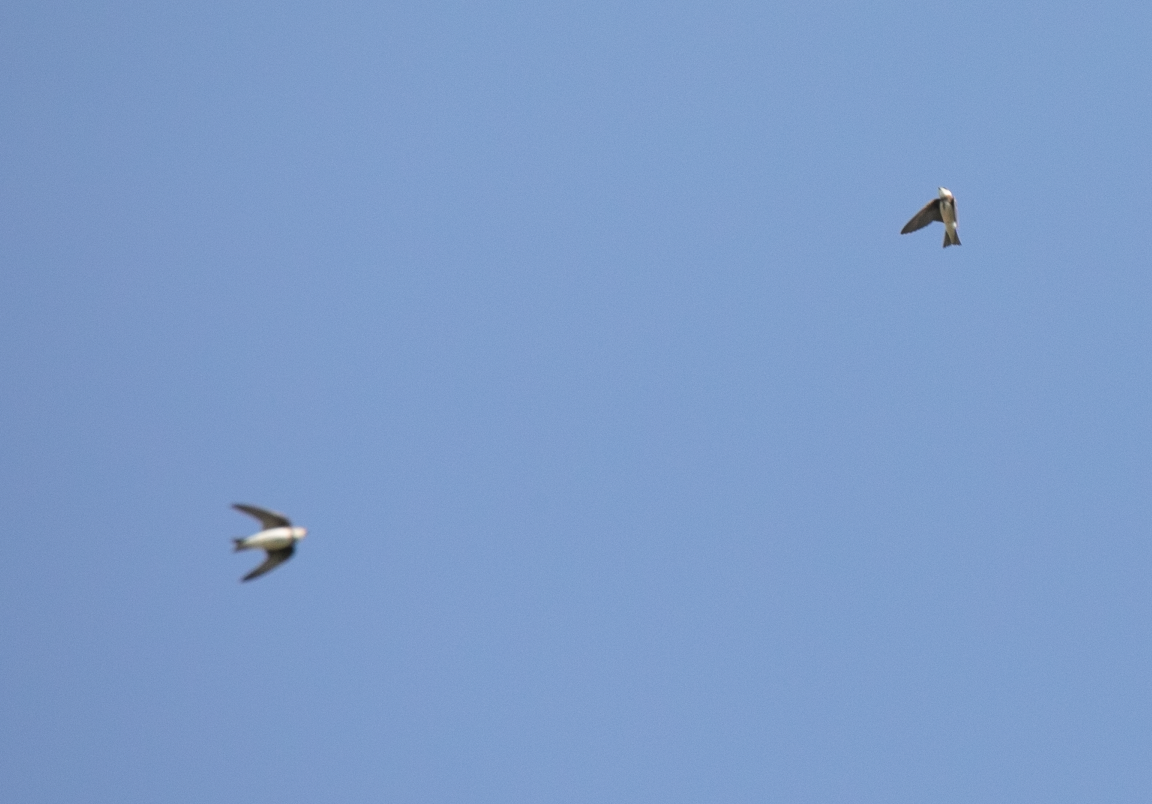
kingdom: Animalia
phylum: Chordata
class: Aves
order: Passeriformes
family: Hirundinidae
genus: Riparia
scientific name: Riparia riparia
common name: Sand martin
